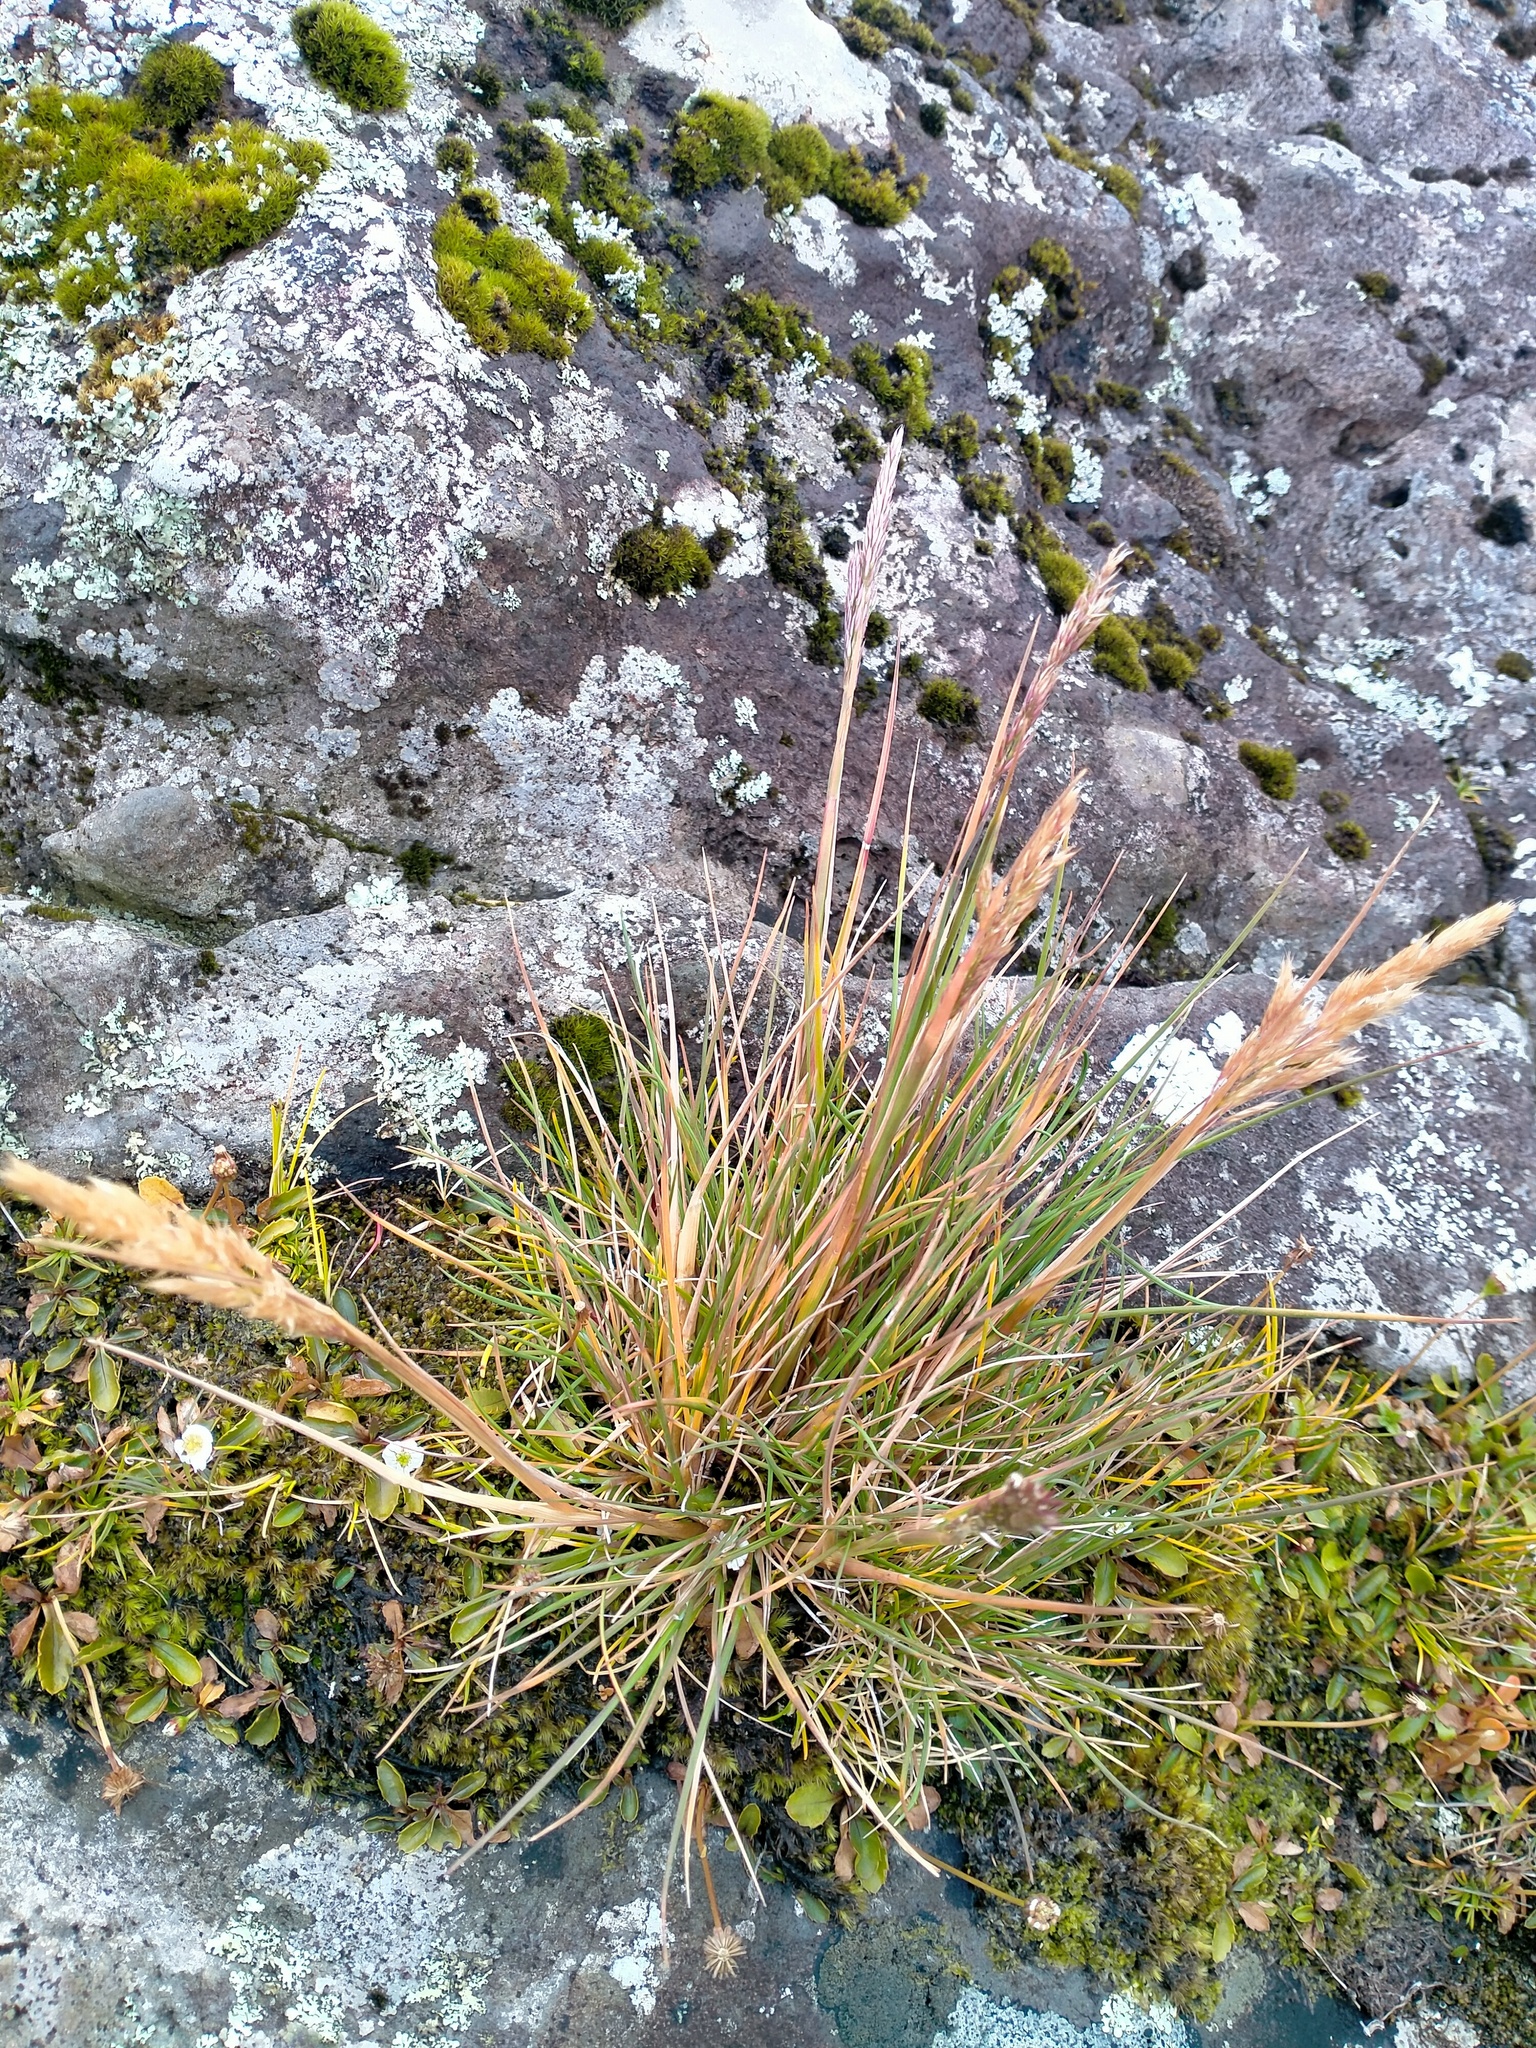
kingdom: Plantae
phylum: Tracheophyta
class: Liliopsida
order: Poales
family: Poaceae
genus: Polypogon
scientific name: Polypogon magellanicus
